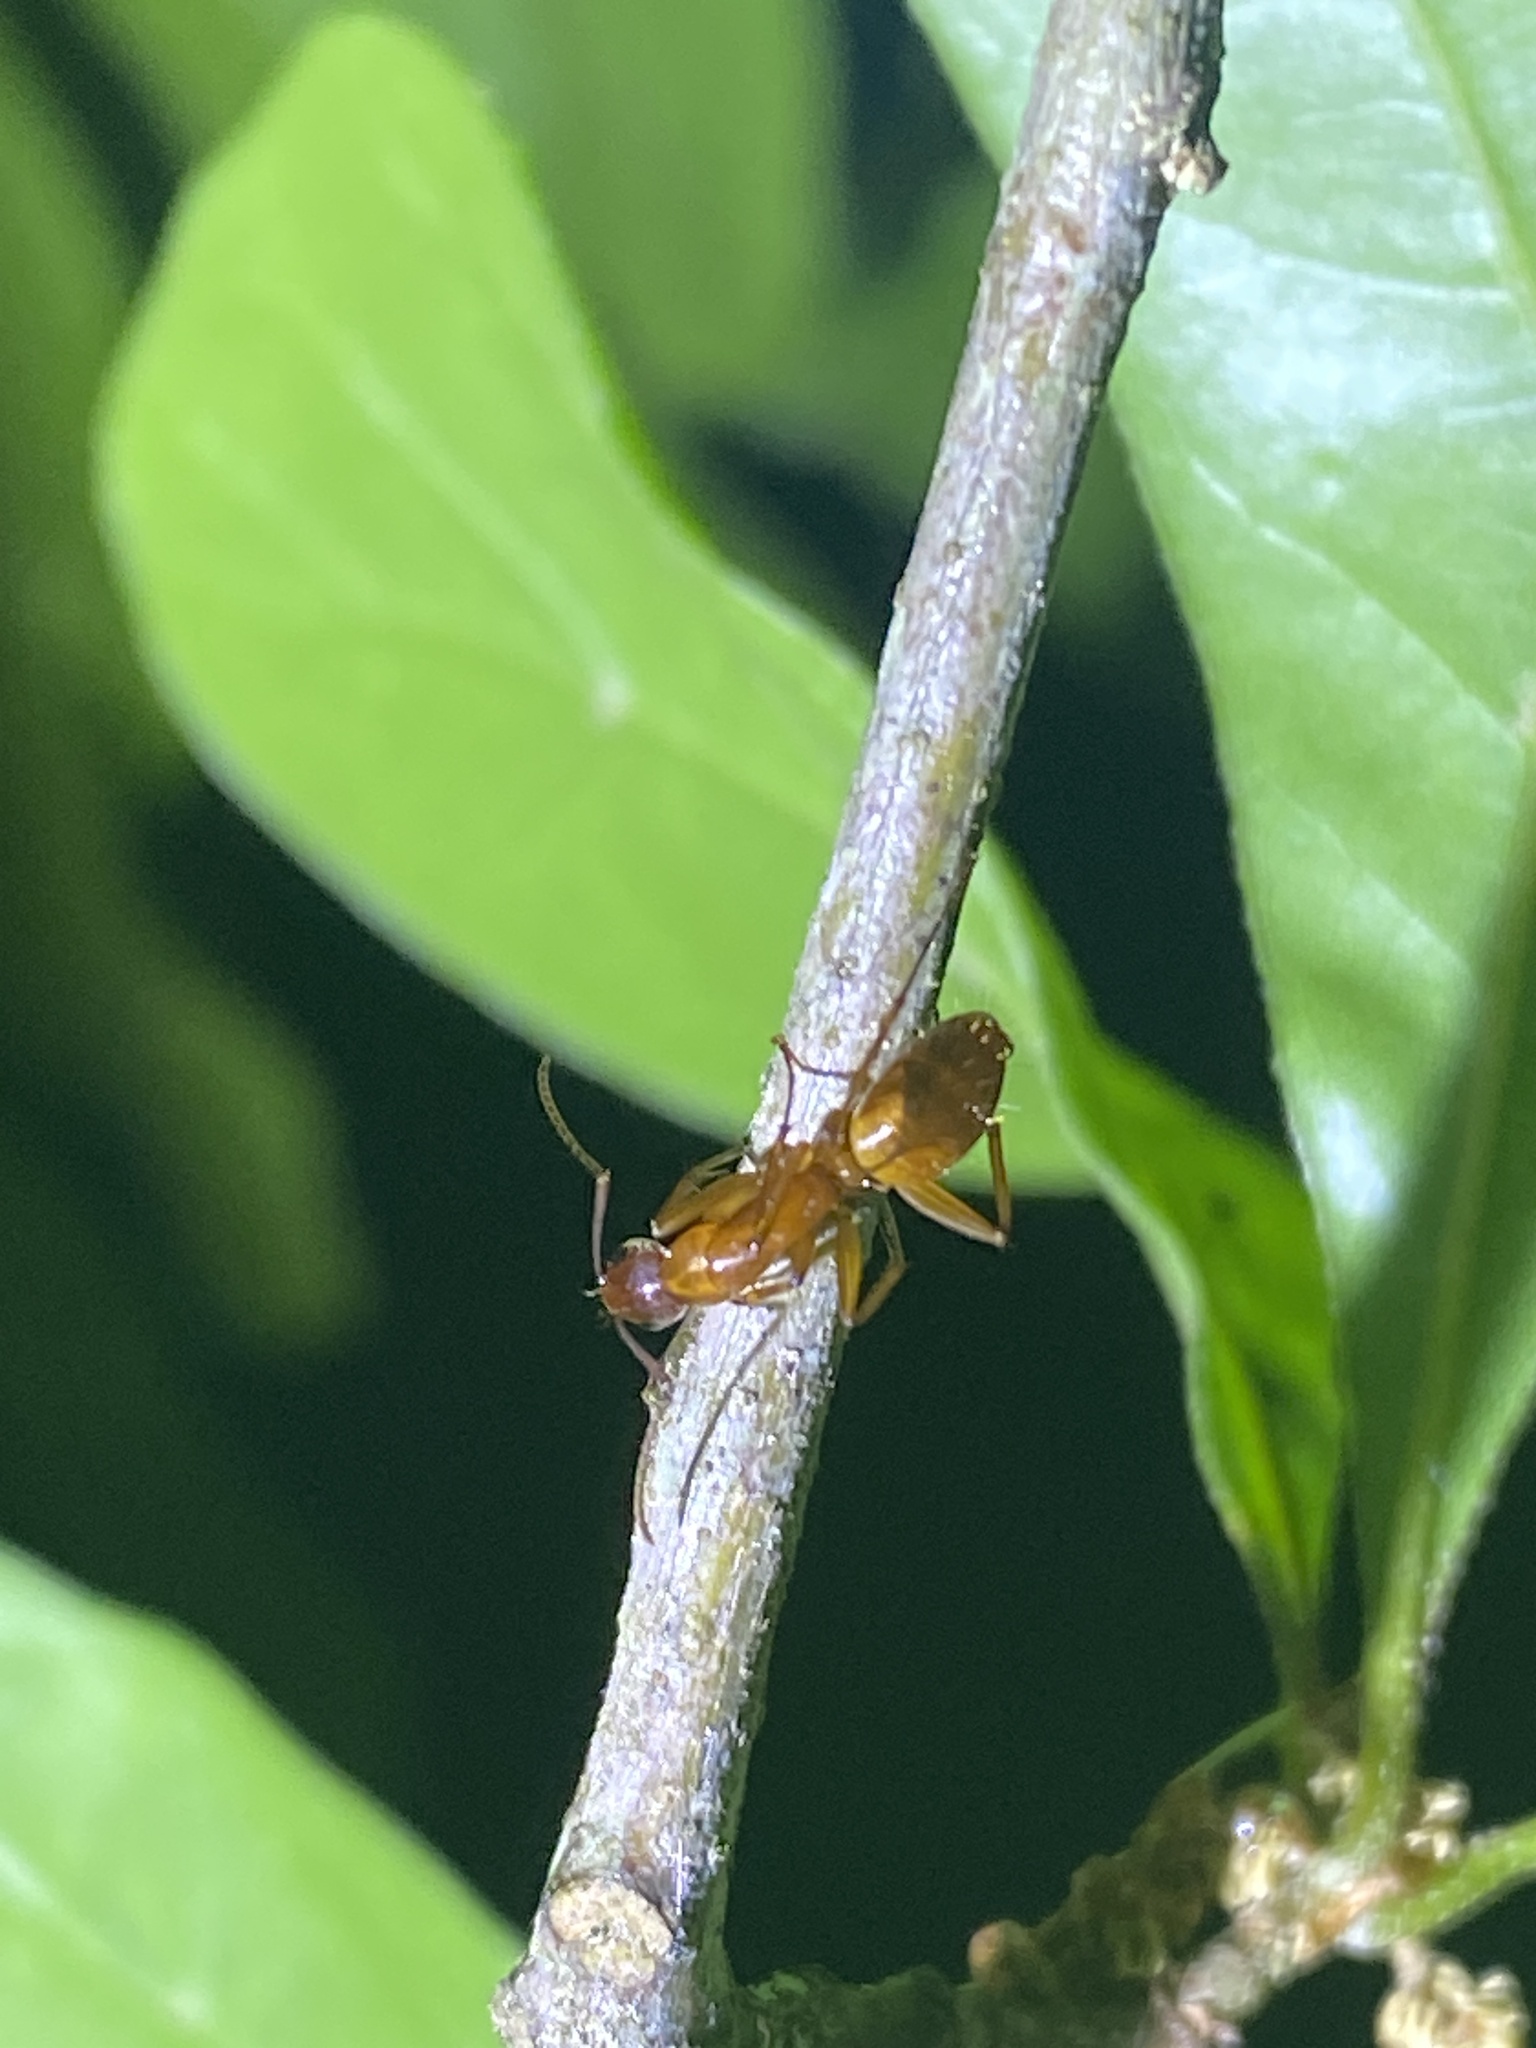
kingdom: Animalia
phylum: Arthropoda
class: Insecta
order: Hymenoptera
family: Formicidae
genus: Camponotus
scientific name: Camponotus castaneus
